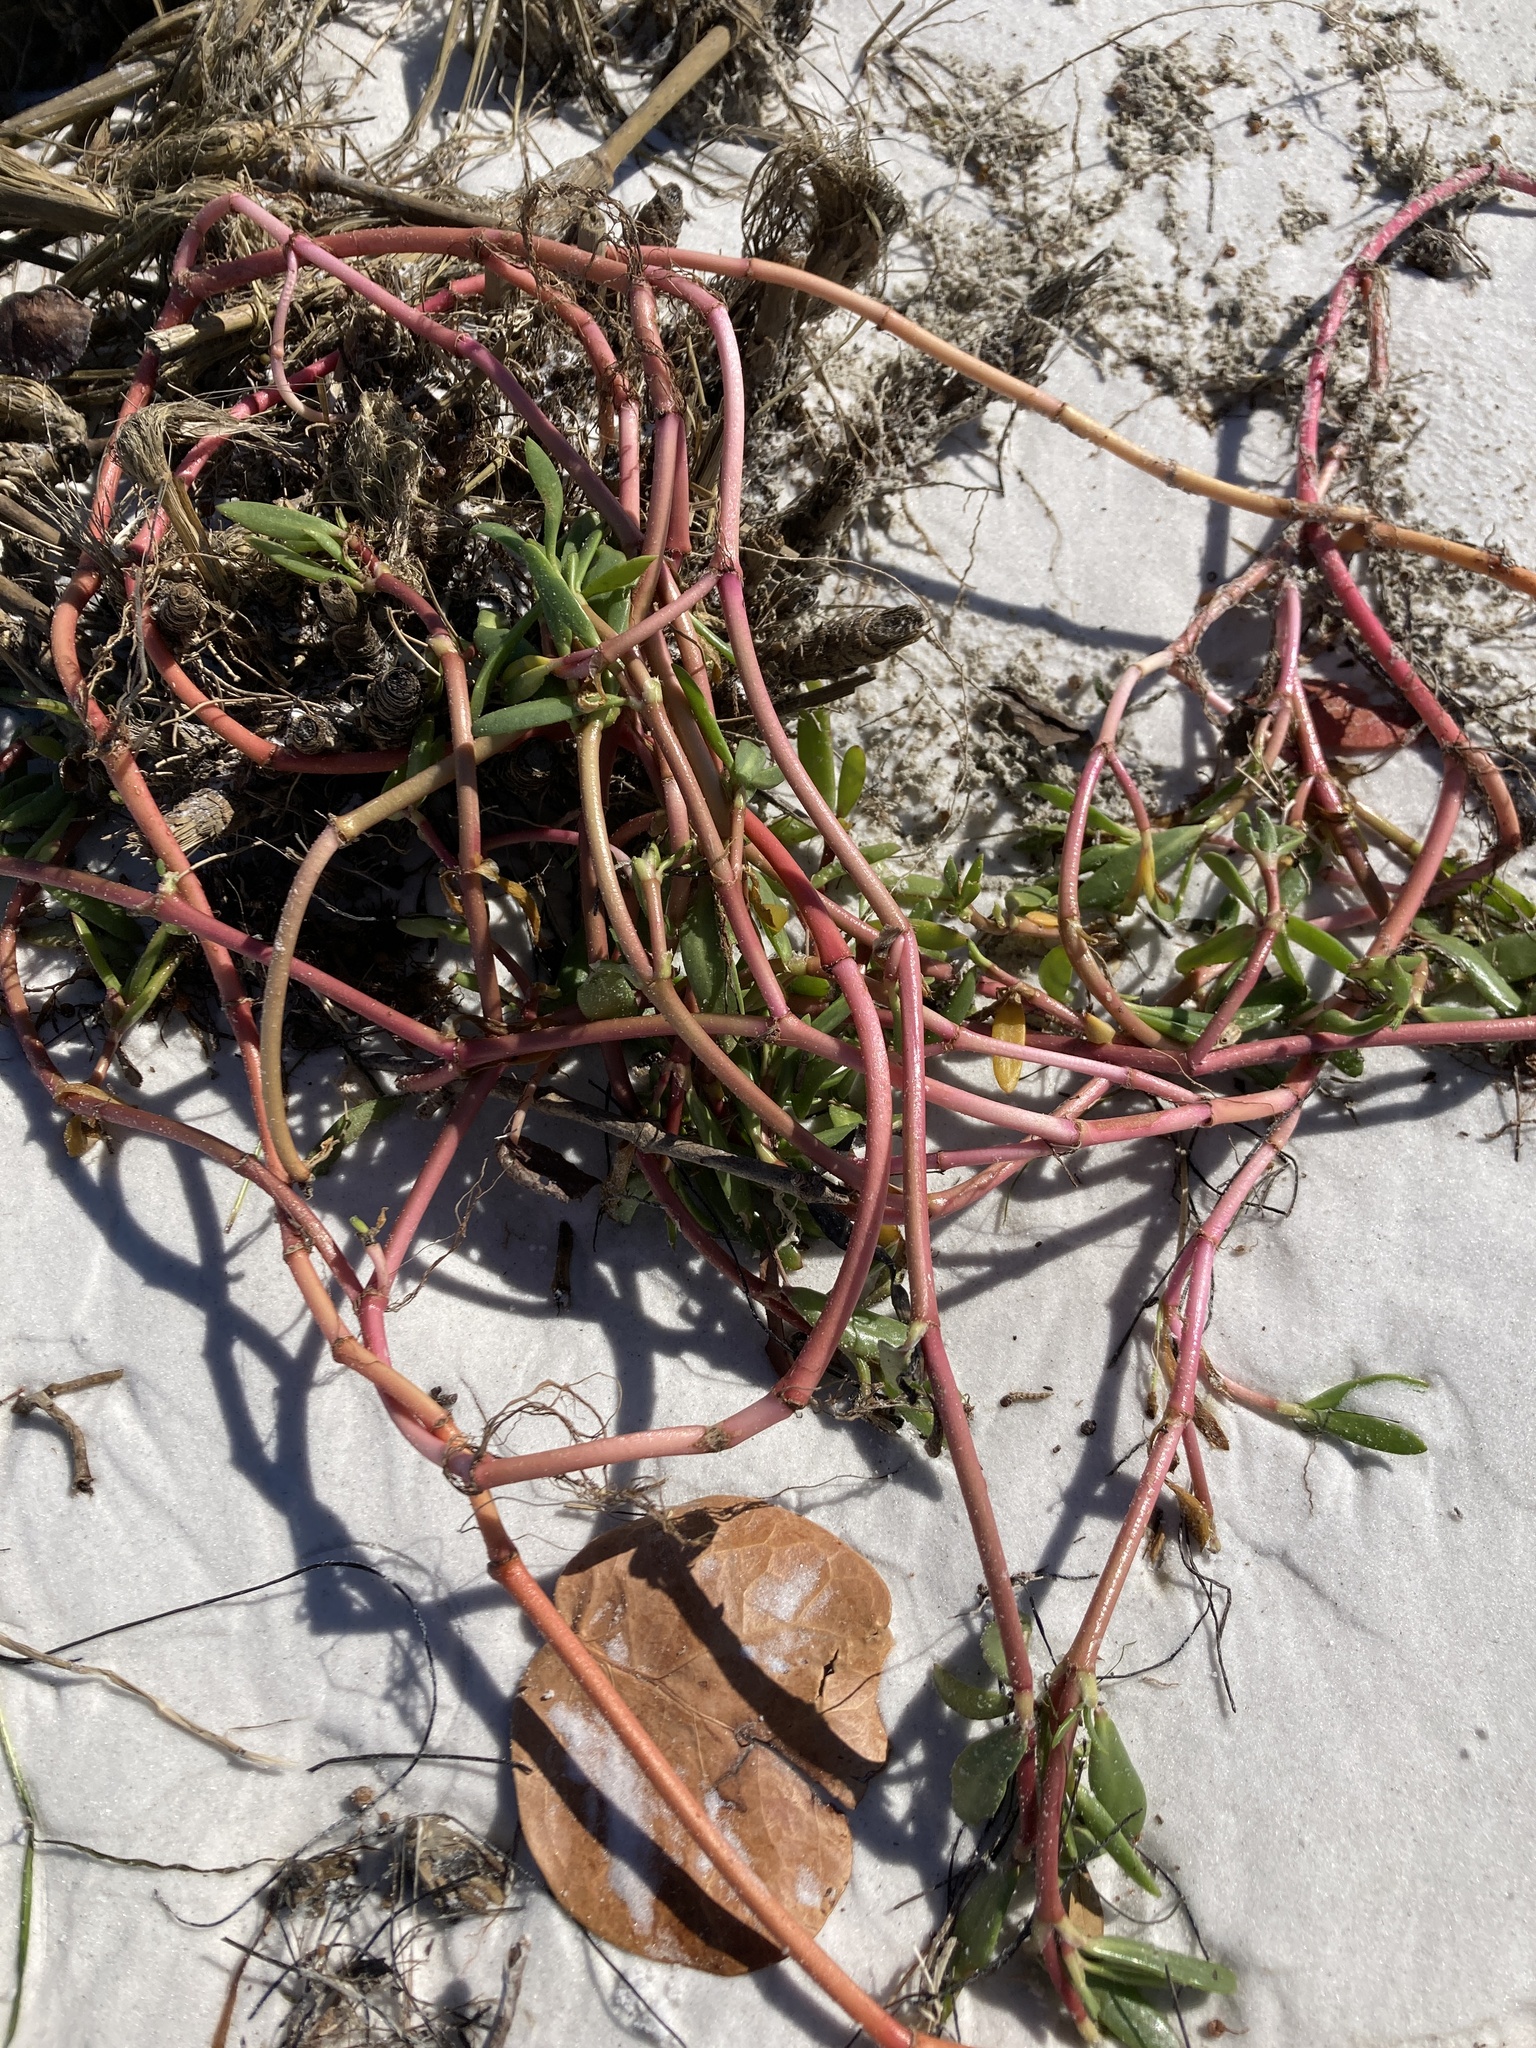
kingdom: Plantae
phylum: Tracheophyta
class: Magnoliopsida
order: Caryophyllales
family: Aizoaceae
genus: Sesuvium
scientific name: Sesuvium portulacastrum
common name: Sea-purslane
